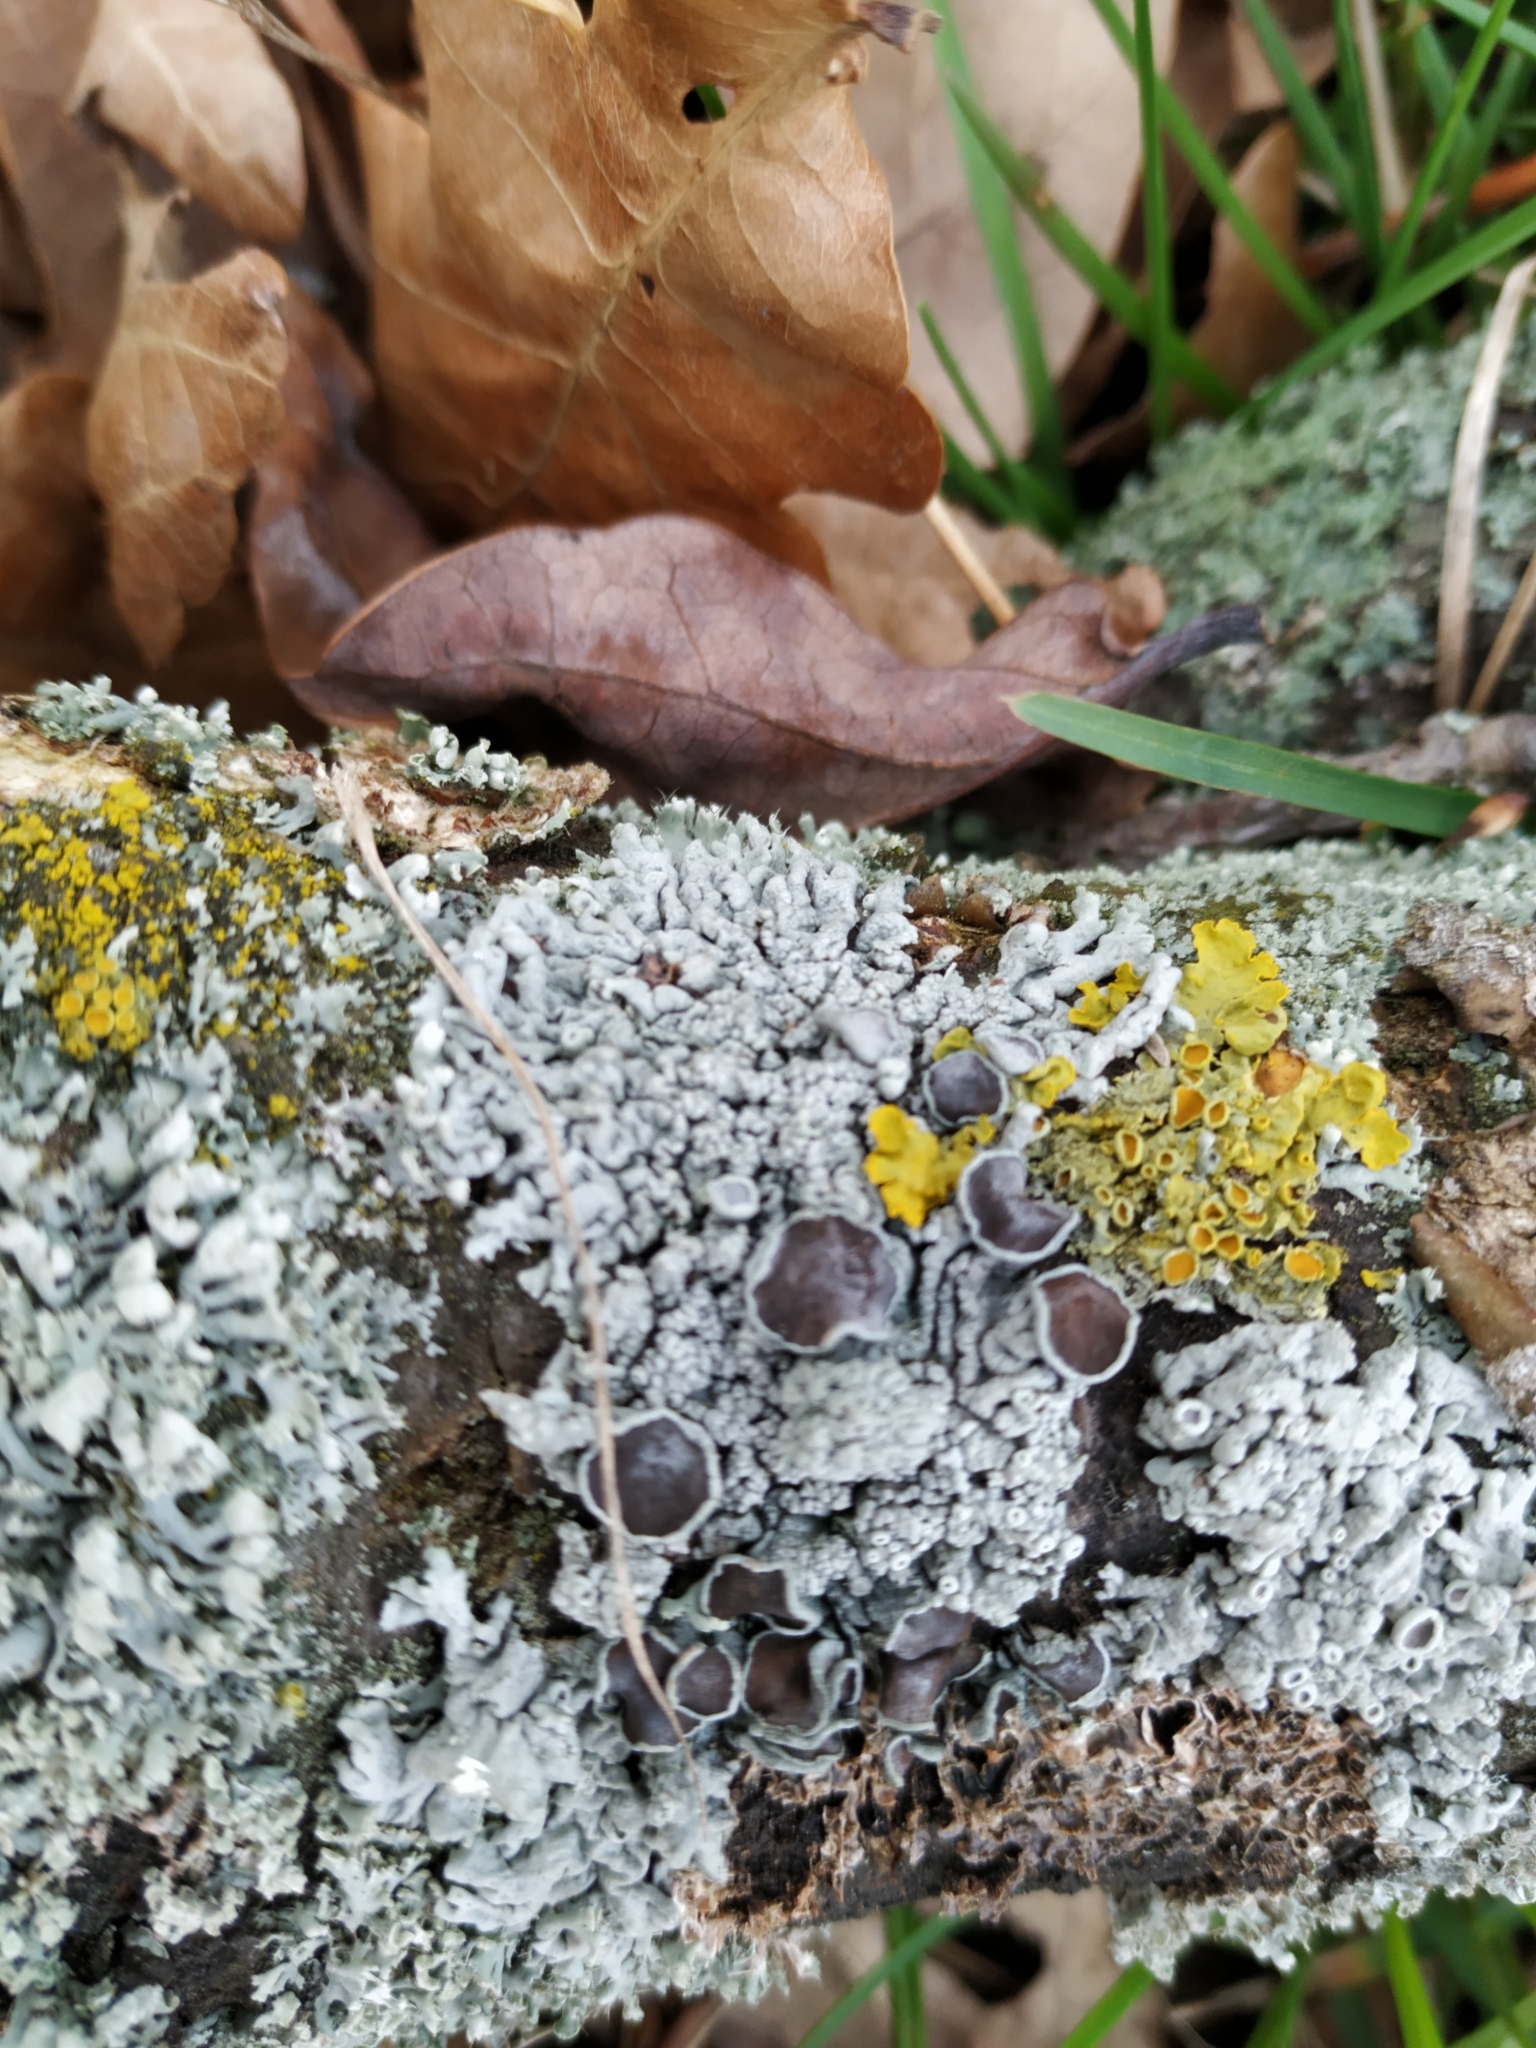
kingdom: Fungi
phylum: Ascomycota
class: Lecanoromycetes
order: Caliciales
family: Physciaceae
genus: Physcia
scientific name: Physcia stellaris
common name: Star rosette lichen
